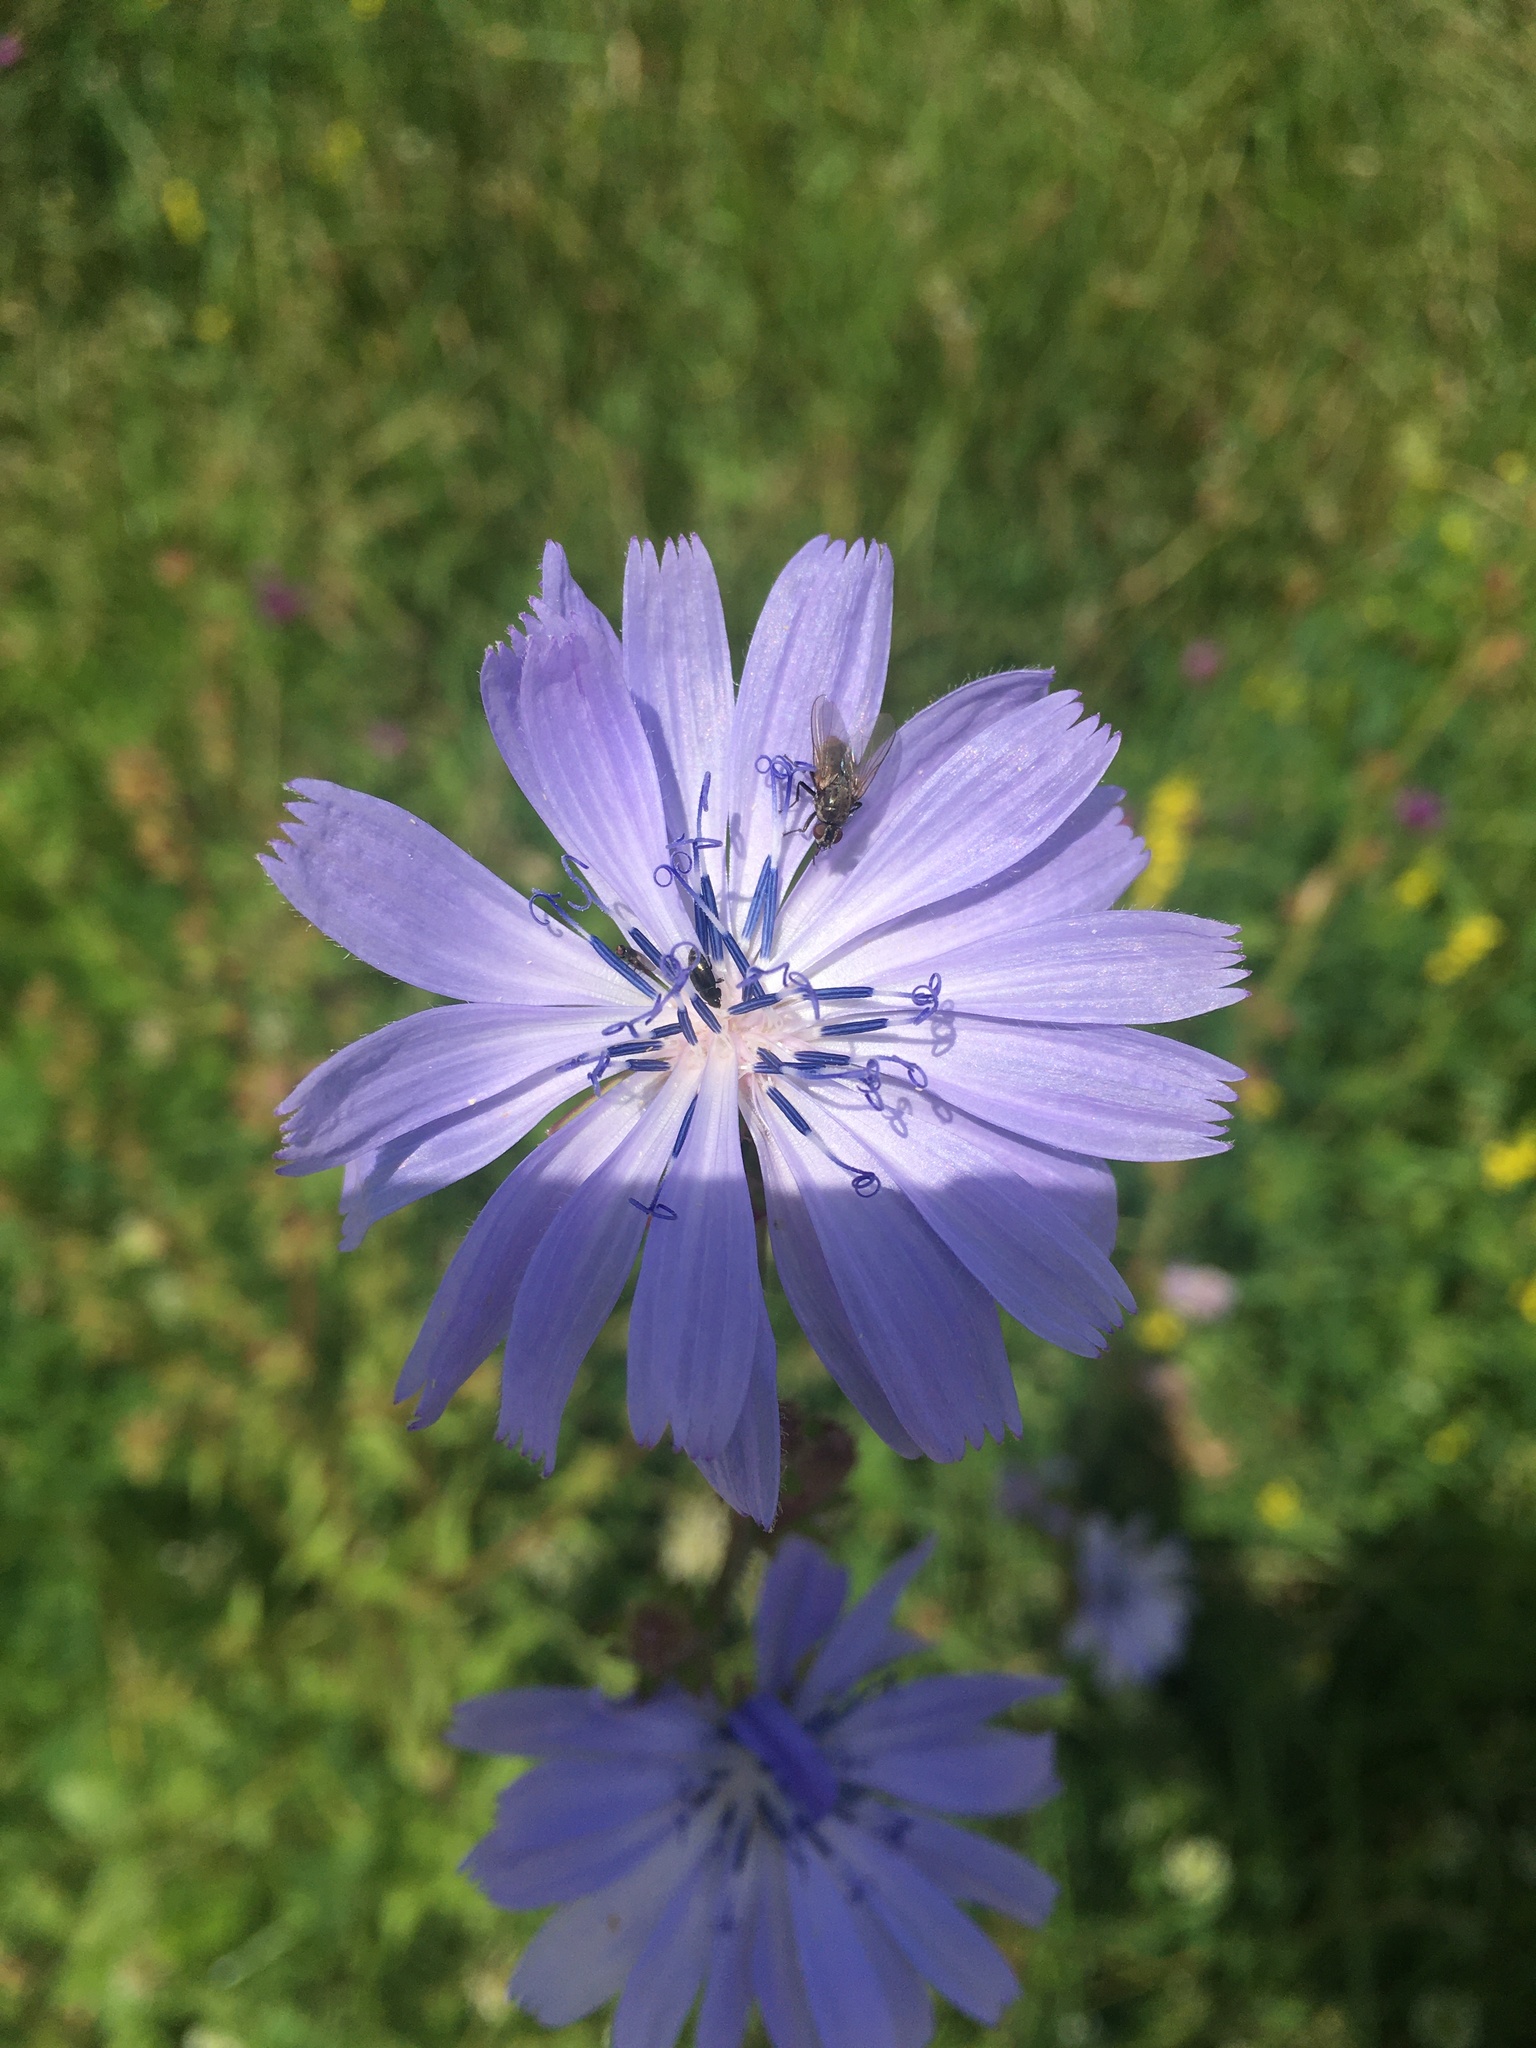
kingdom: Plantae
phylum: Tracheophyta
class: Magnoliopsida
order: Asterales
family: Asteraceae
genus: Cichorium
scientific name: Cichorium intybus
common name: Chicory
